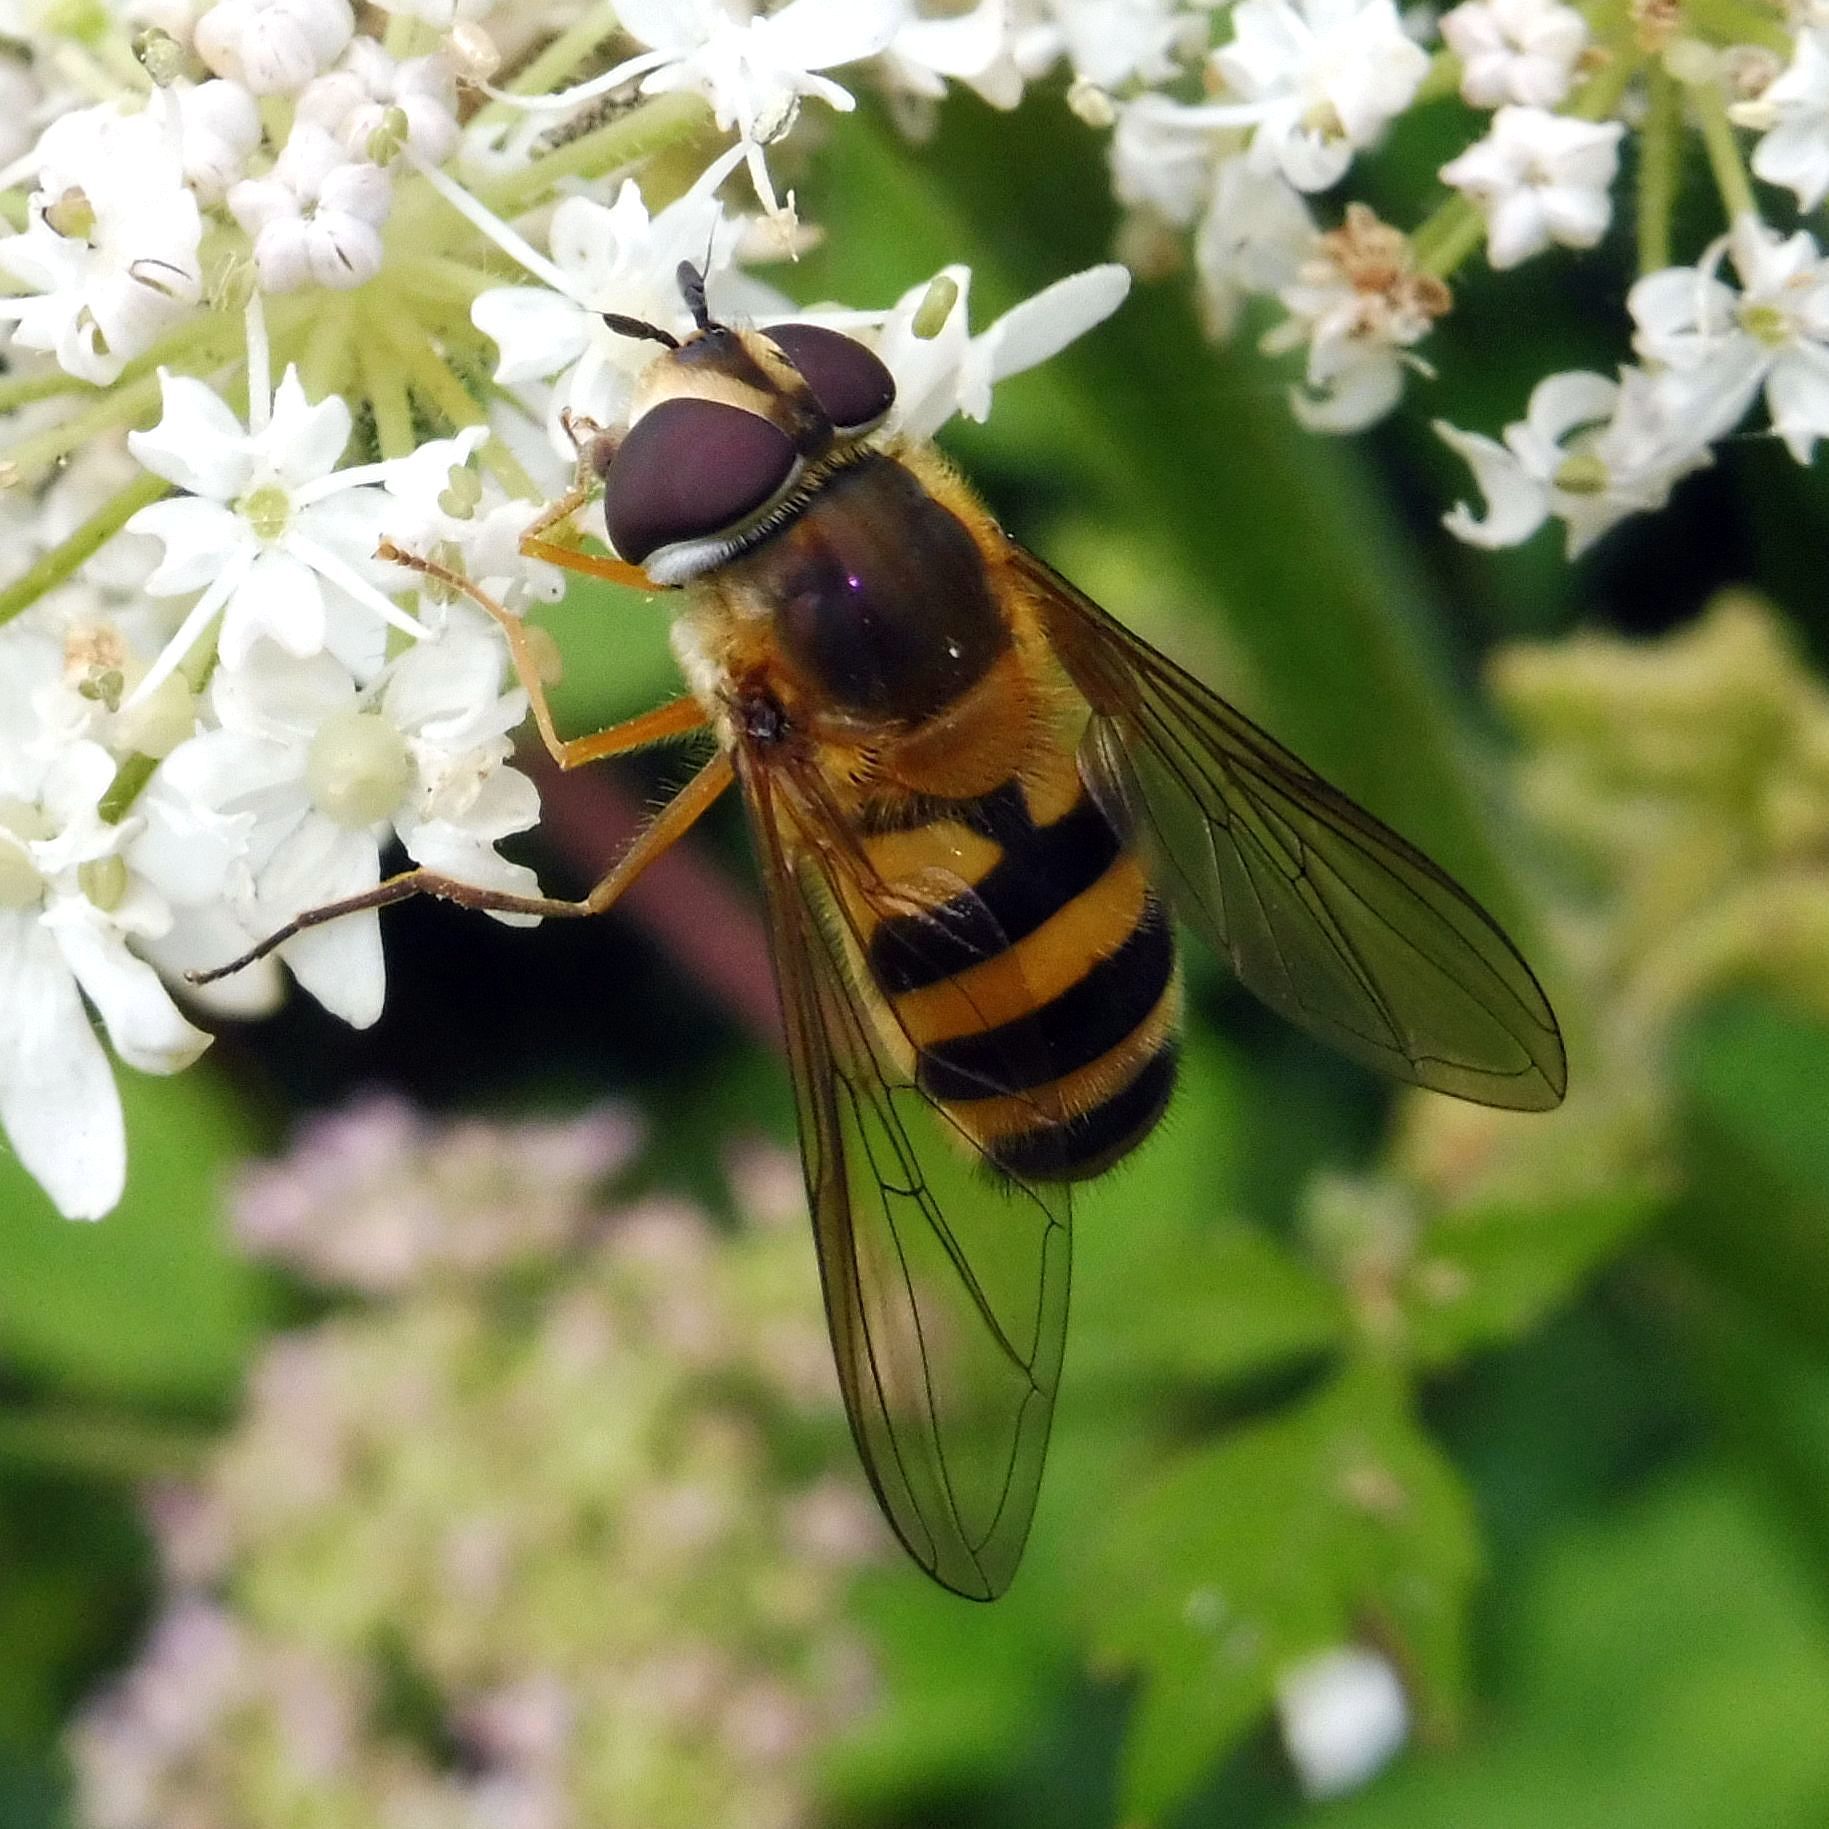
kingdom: Animalia
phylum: Arthropoda
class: Insecta
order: Diptera
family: Syrphidae
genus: Epistrophe
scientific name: Epistrophe grossulariae
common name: Black-horned smoothtail
